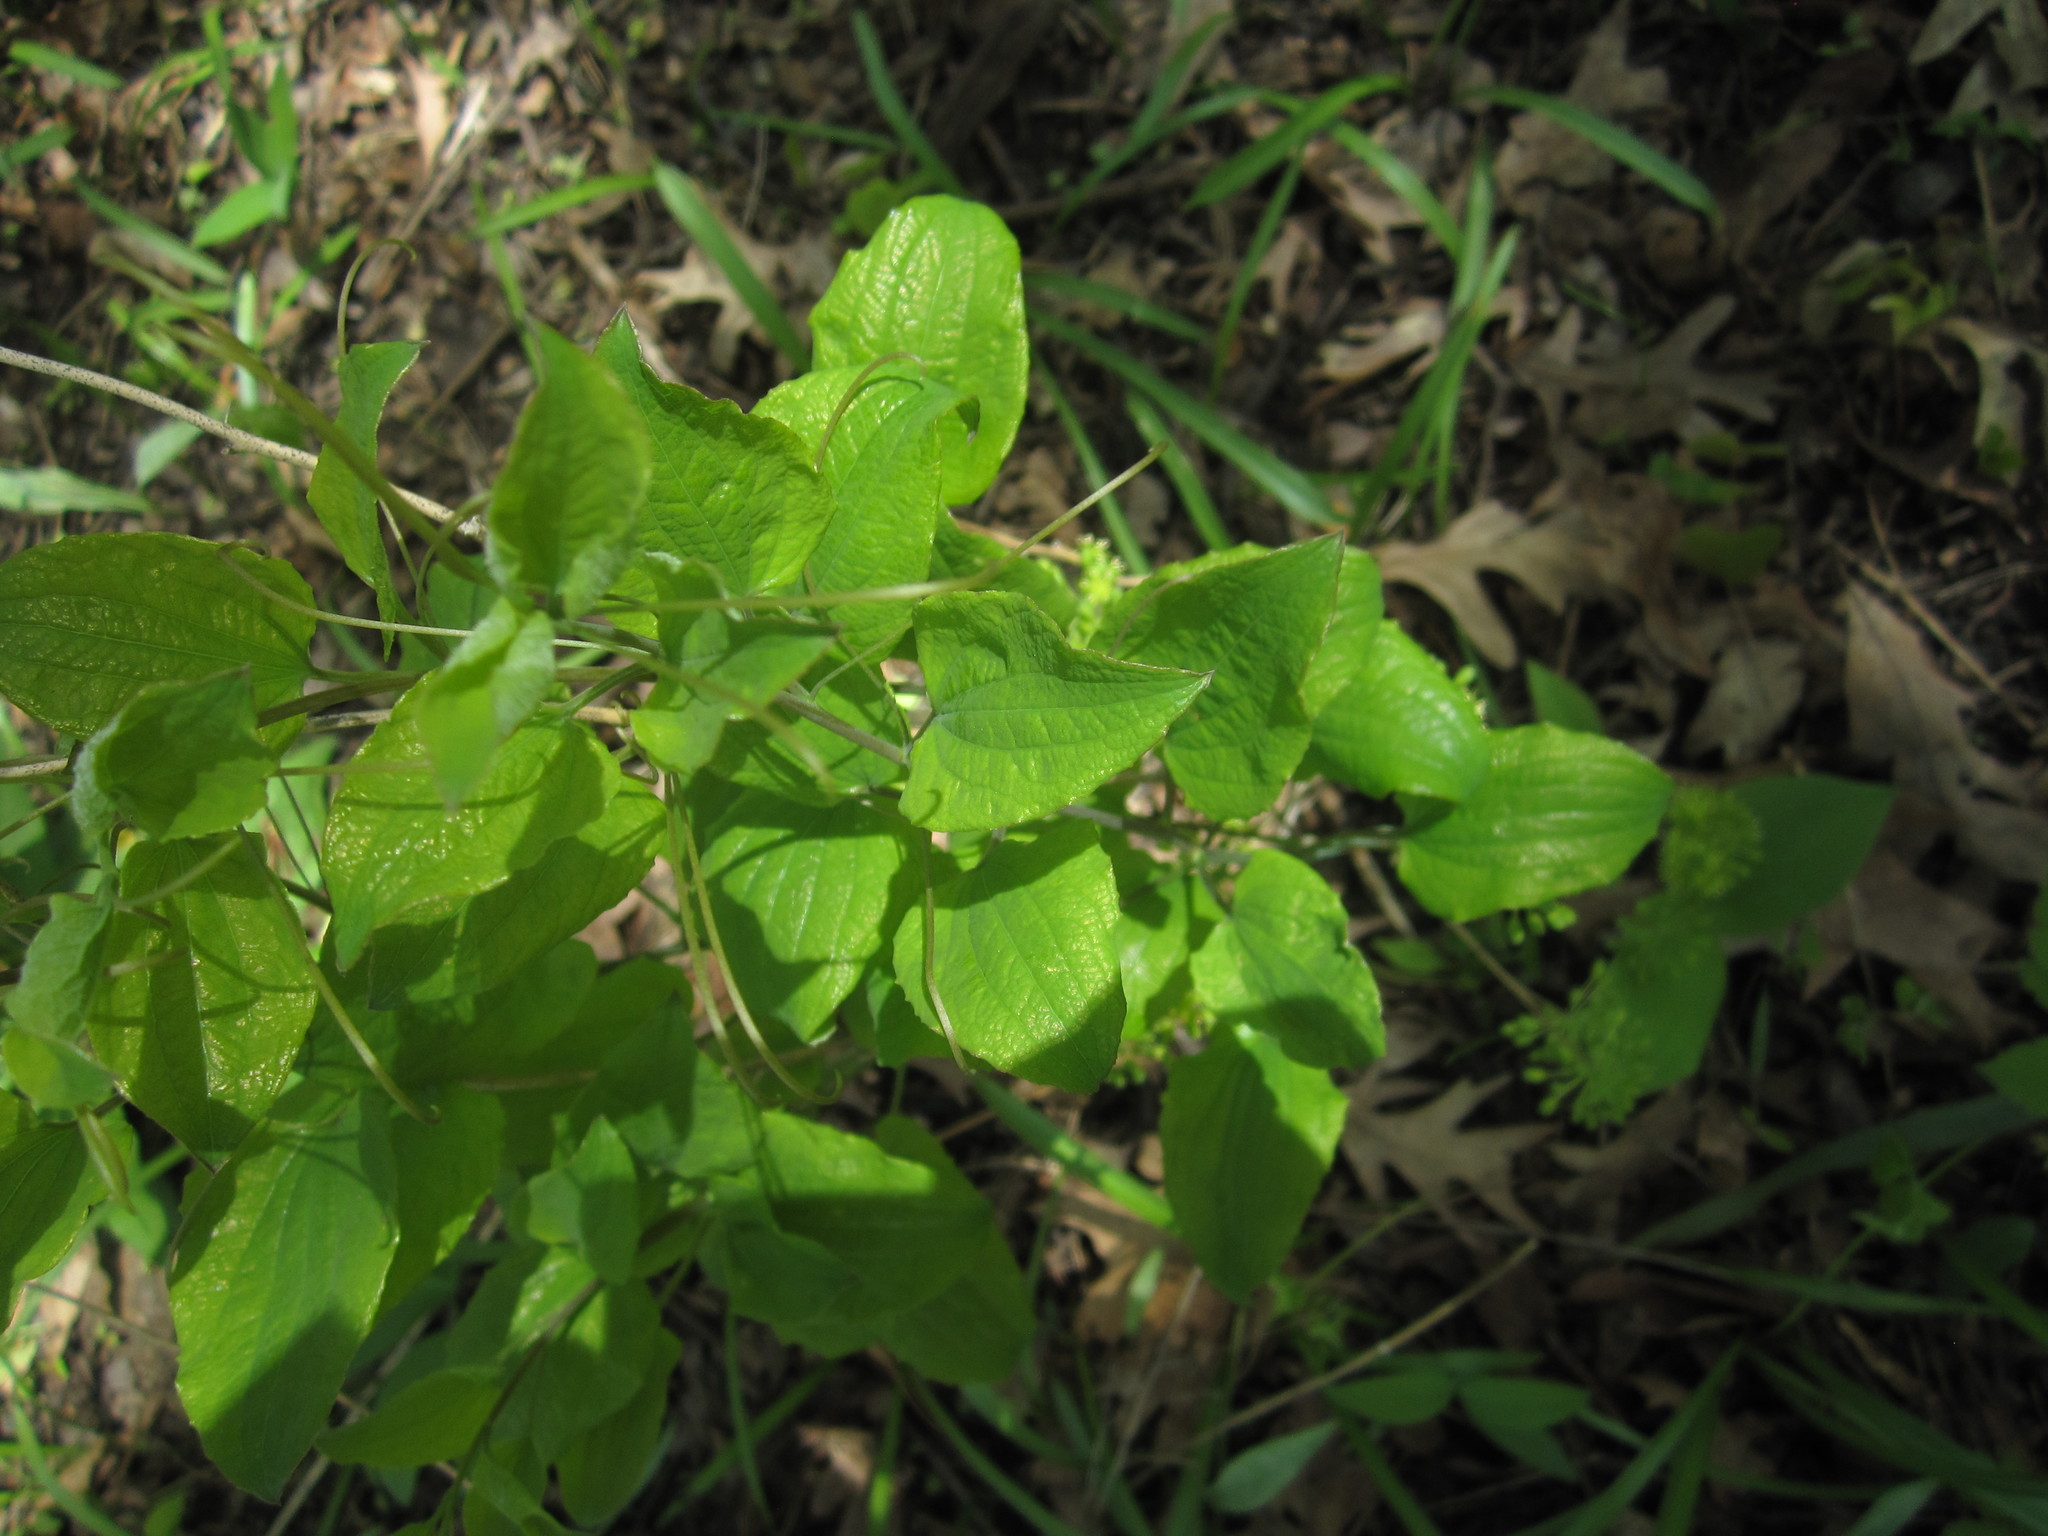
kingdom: Plantae
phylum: Tracheophyta
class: Liliopsida
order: Liliales
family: Smilacaceae
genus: Smilax
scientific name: Smilax illinoensis
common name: Illinois carrionflower
